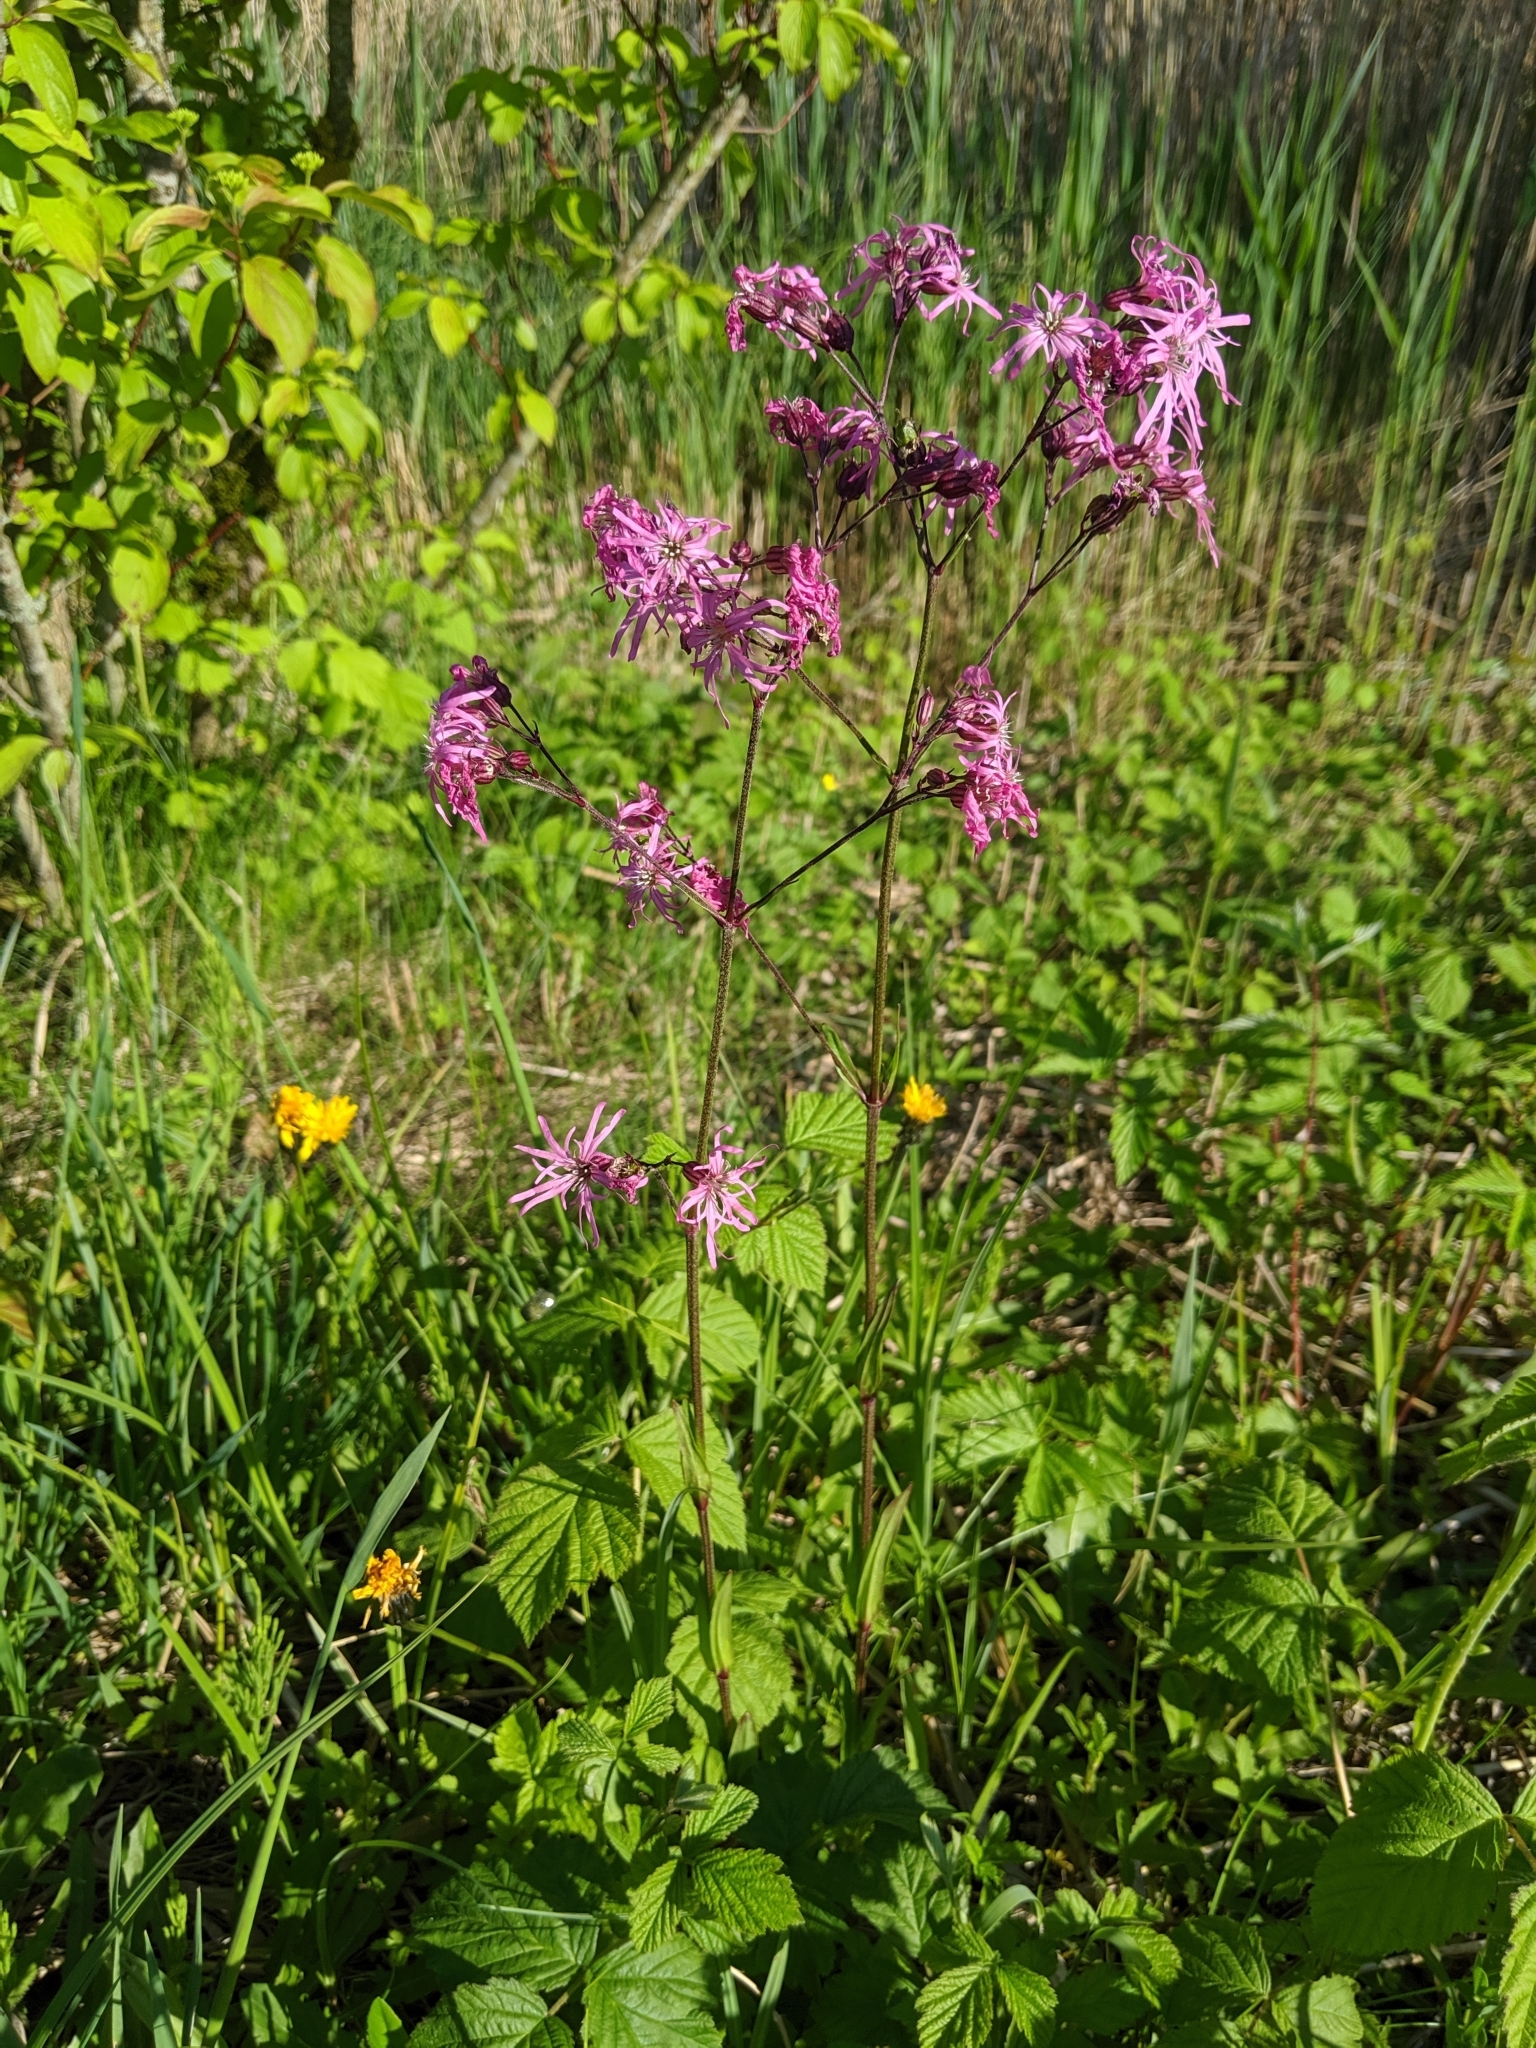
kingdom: Plantae
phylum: Tracheophyta
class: Magnoliopsida
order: Caryophyllales
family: Caryophyllaceae
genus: Silene
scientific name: Silene flos-cuculi
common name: Ragged-robin
